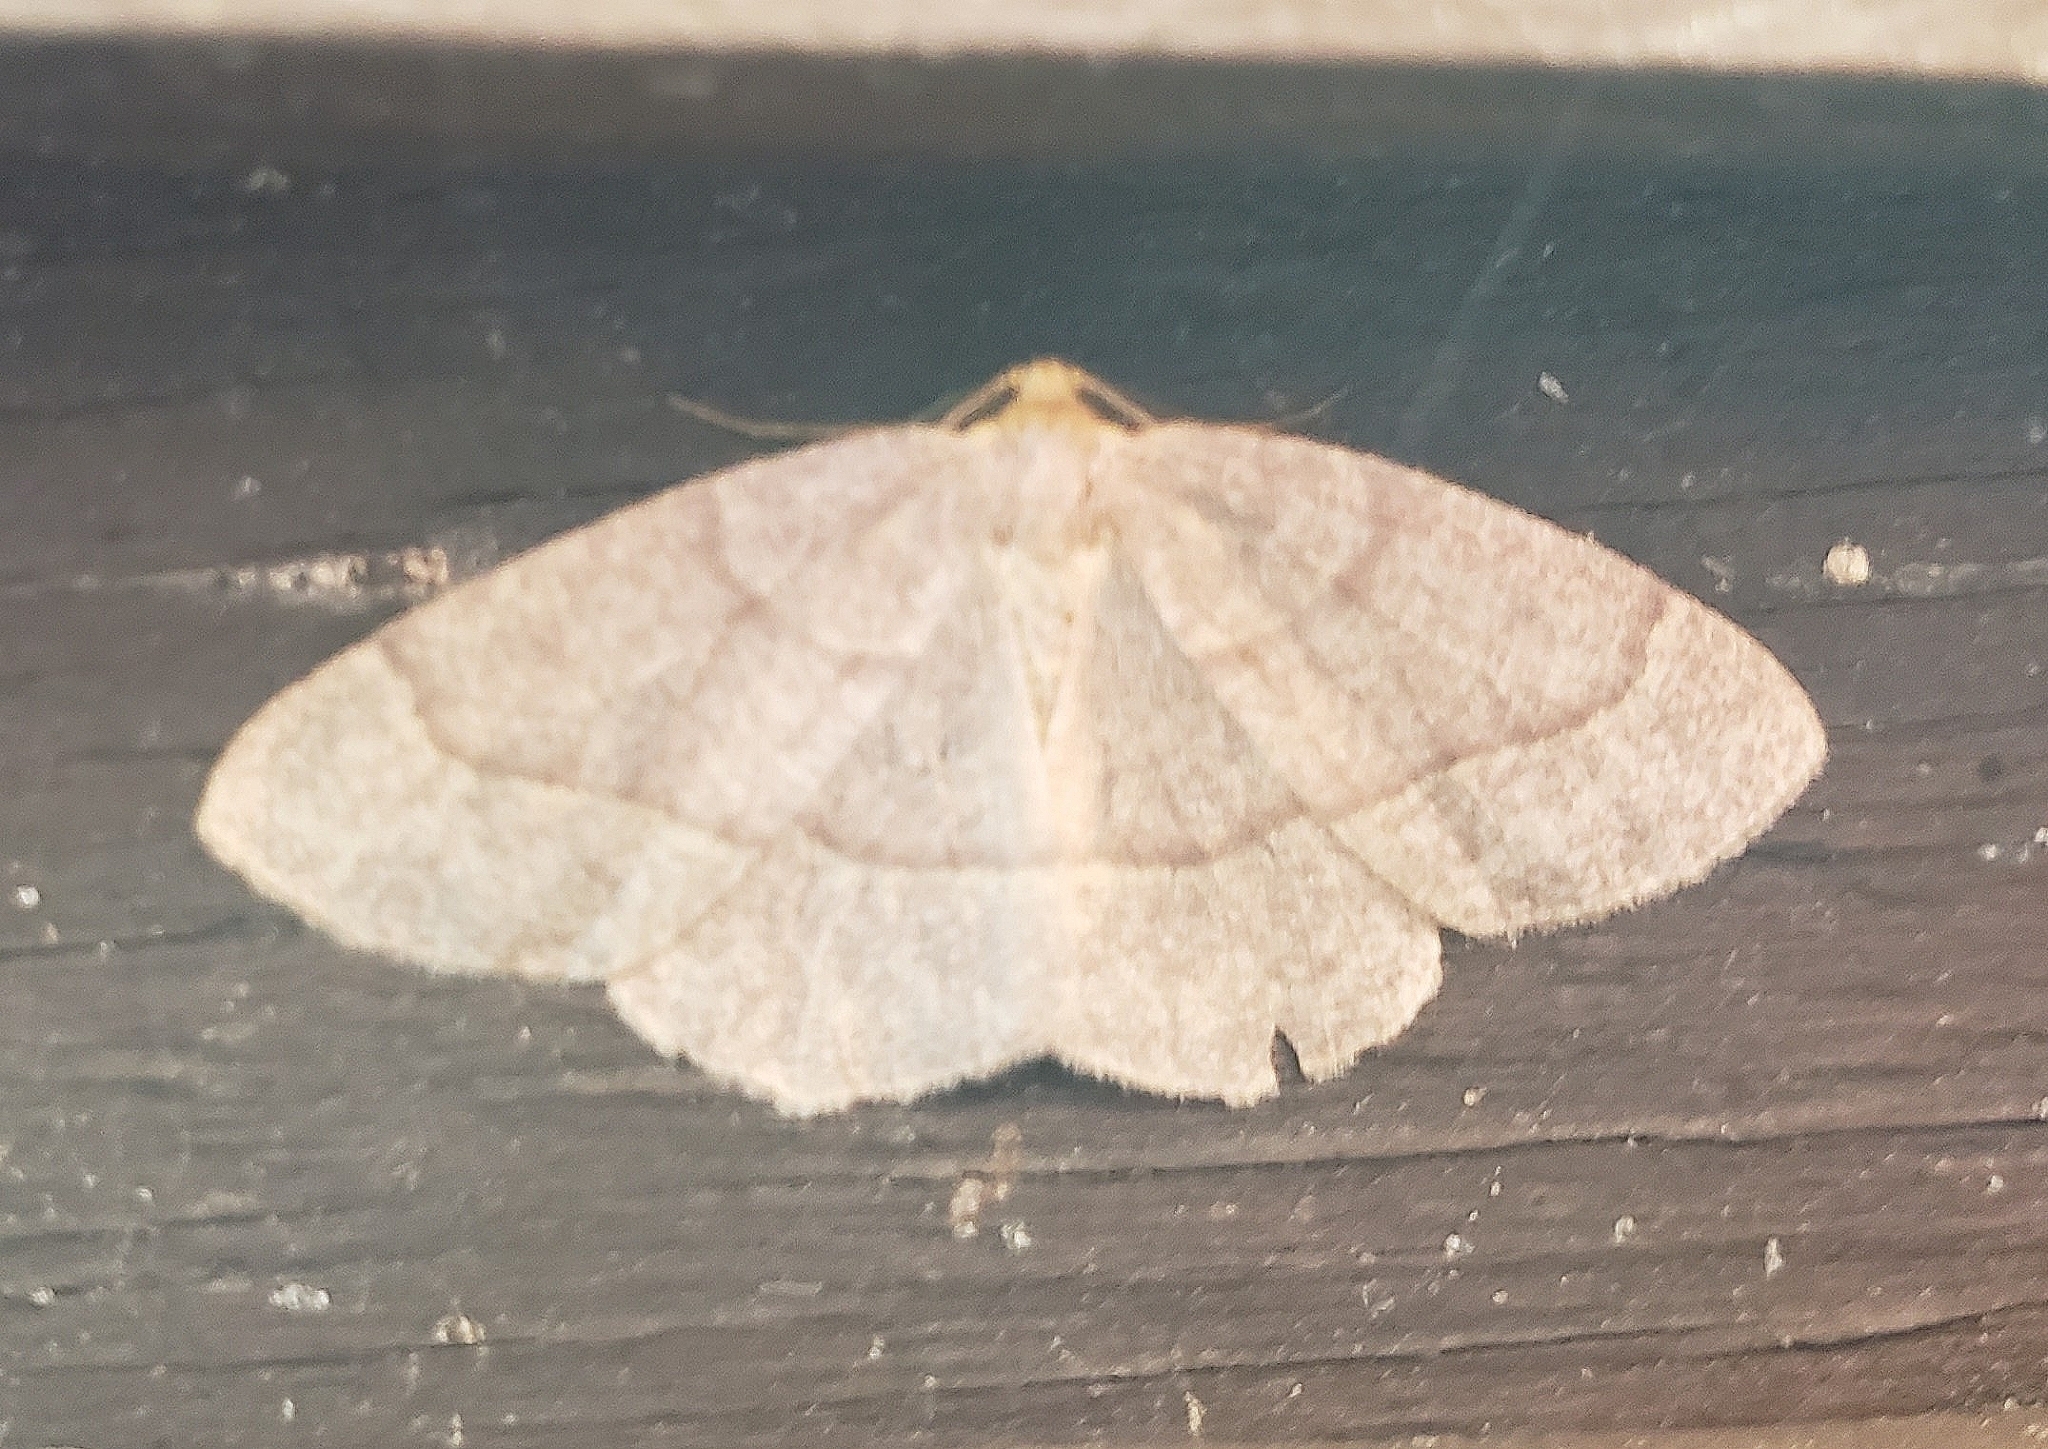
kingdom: Animalia
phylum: Arthropoda
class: Insecta
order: Lepidoptera
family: Geometridae
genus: Lambdina
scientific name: Lambdina fervidaria
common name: Curve-lined looper moth
